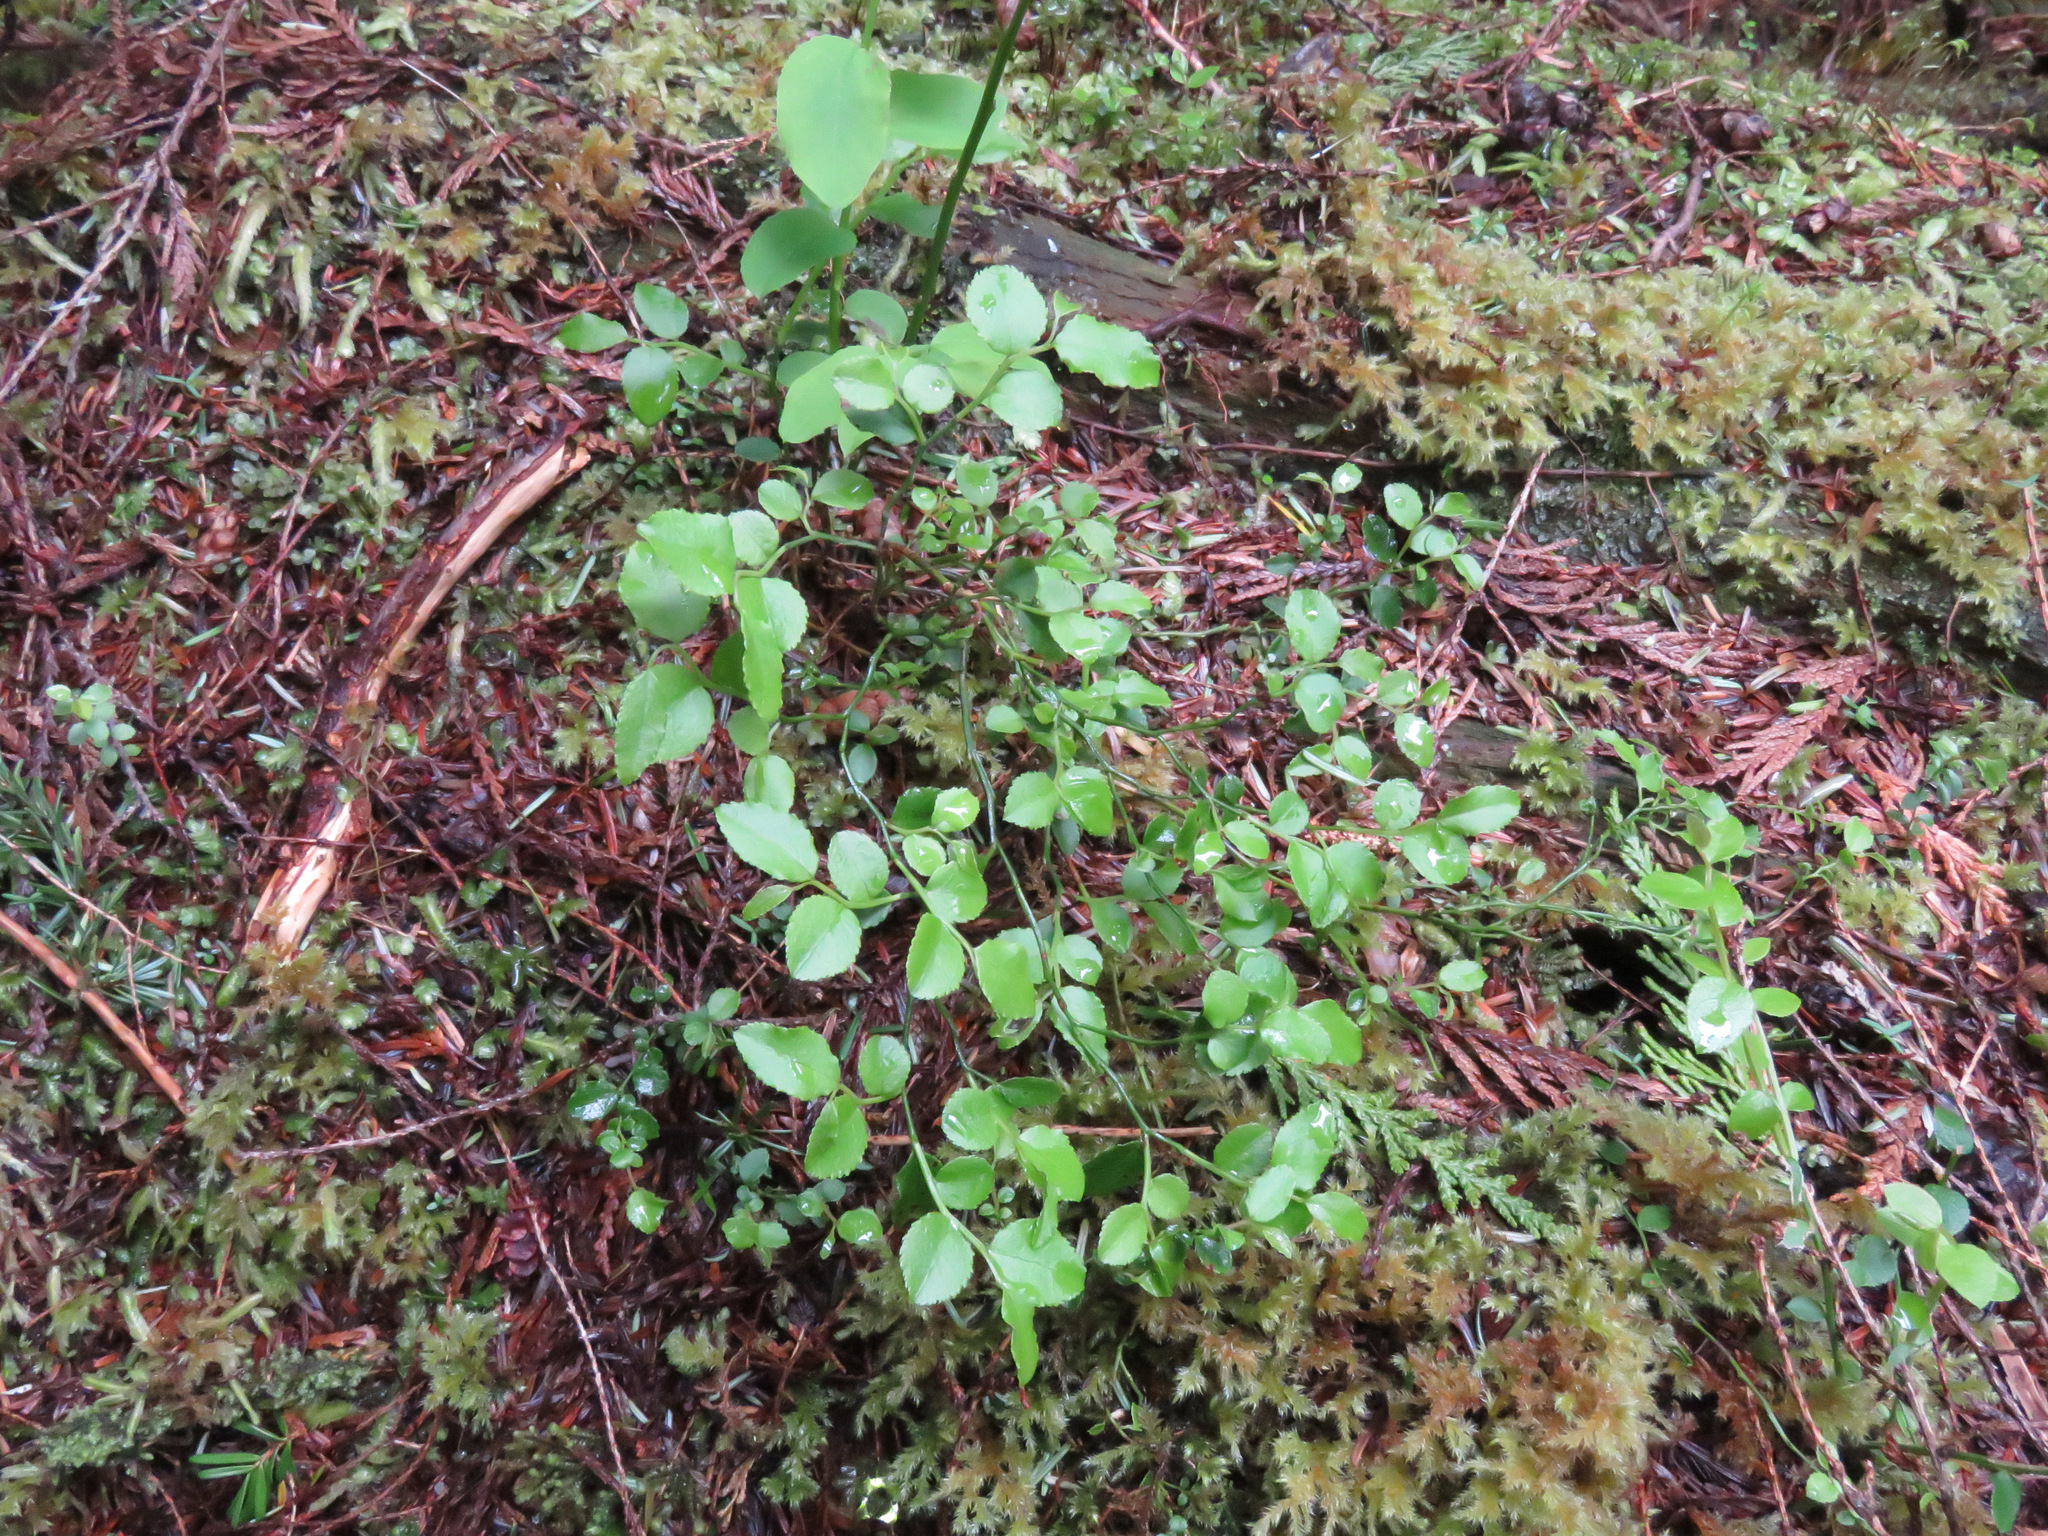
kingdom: Plantae
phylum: Tracheophyta
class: Magnoliopsida
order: Ericales
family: Ericaceae
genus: Vaccinium
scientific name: Vaccinium parvifolium
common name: Red-huckleberry
